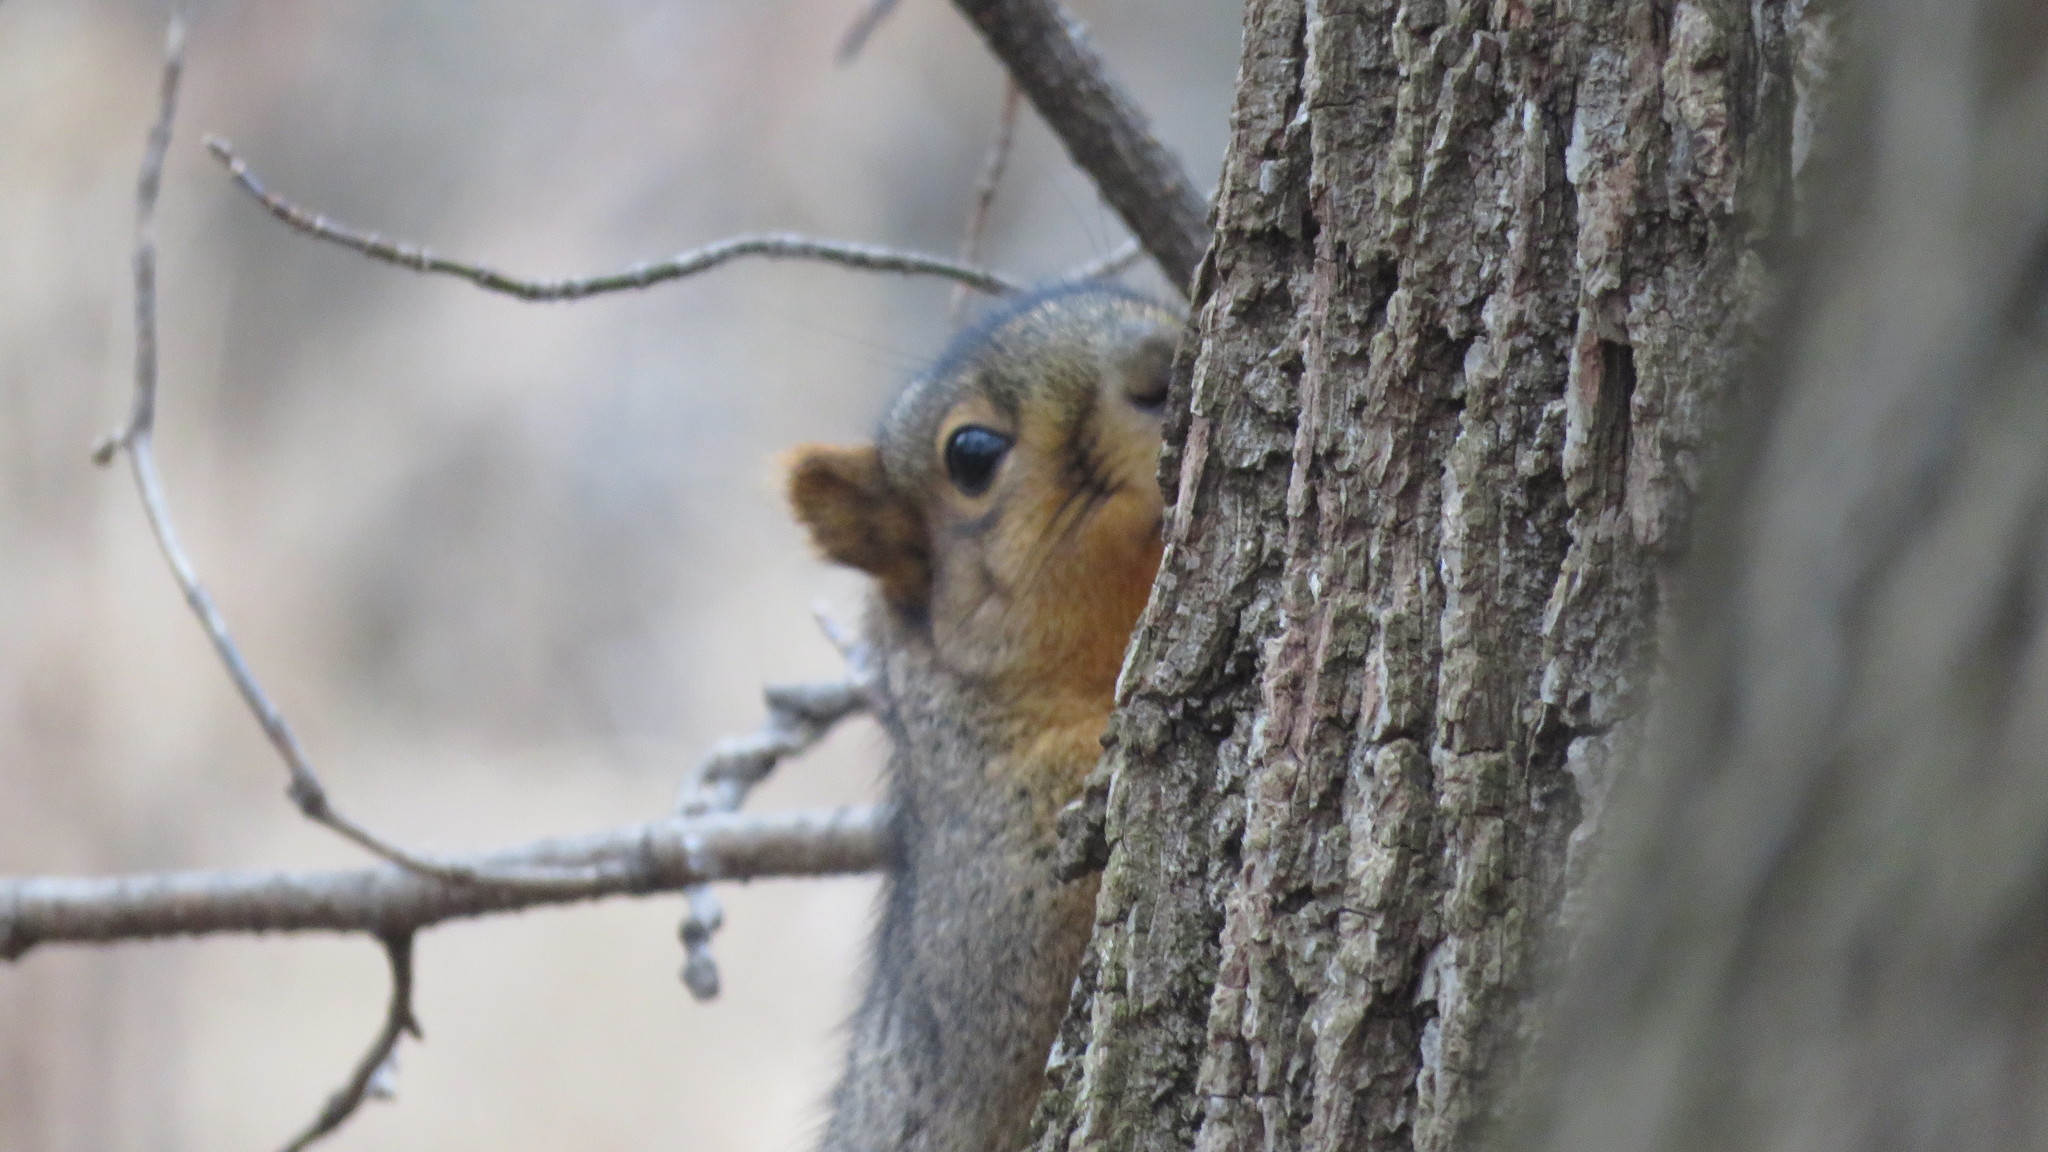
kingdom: Animalia
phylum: Chordata
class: Mammalia
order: Rodentia
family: Sciuridae
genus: Sciurus
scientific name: Sciurus niger
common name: Fox squirrel
